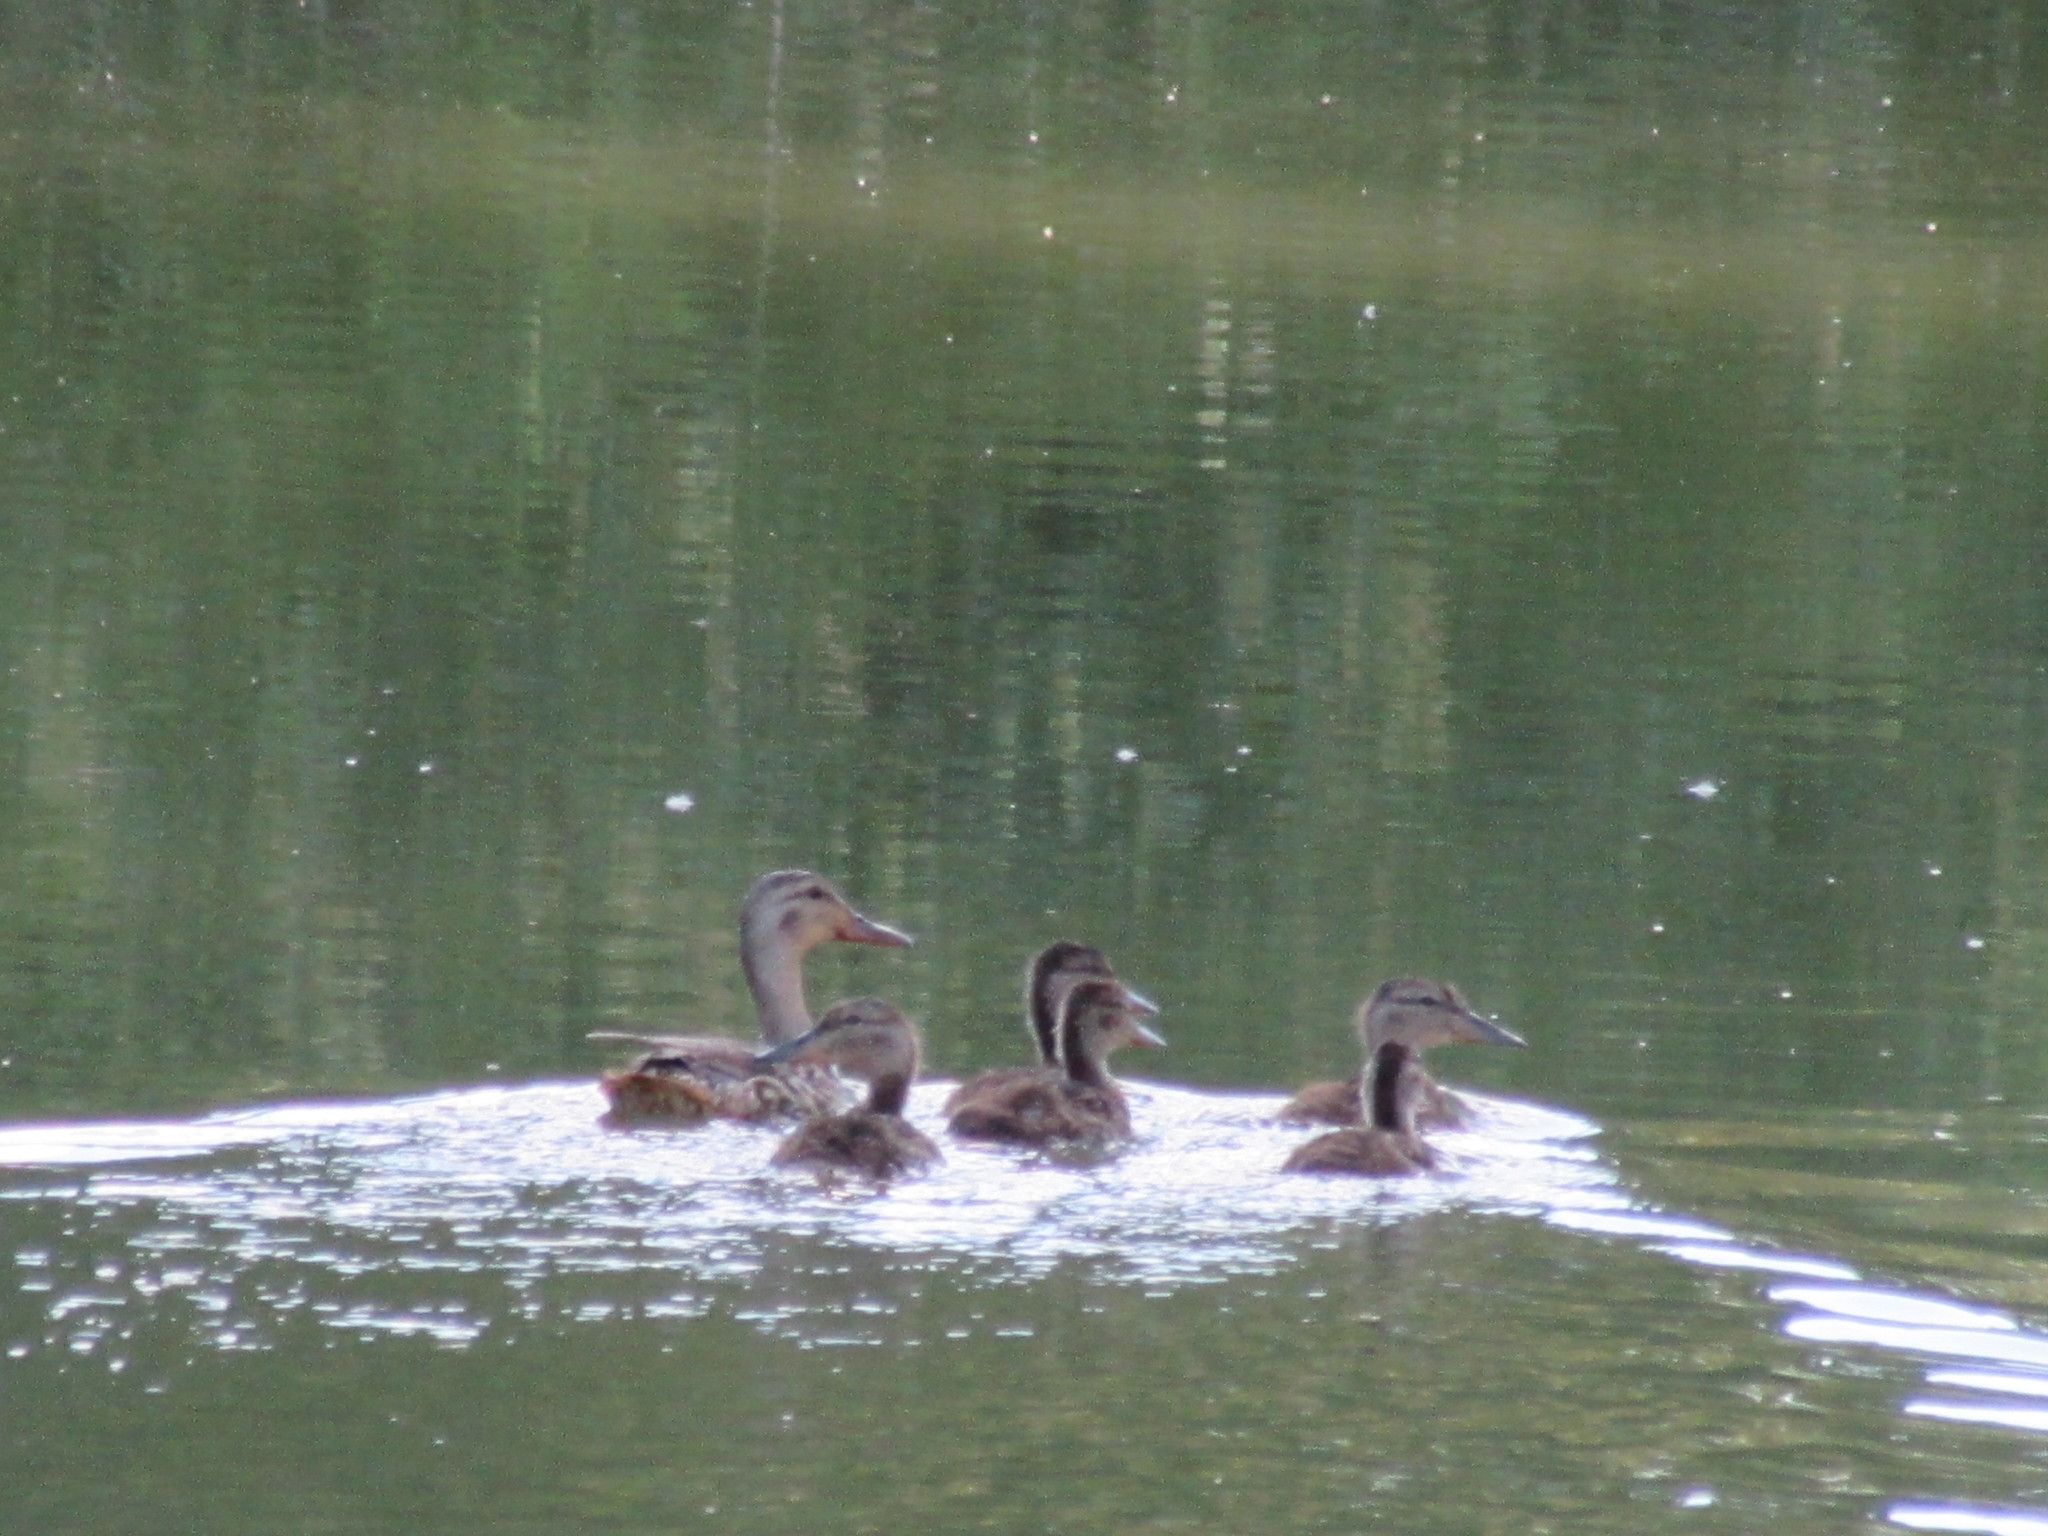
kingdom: Animalia
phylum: Chordata
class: Aves
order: Anseriformes
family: Anatidae
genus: Anas
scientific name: Anas platyrhynchos
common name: Mallard
